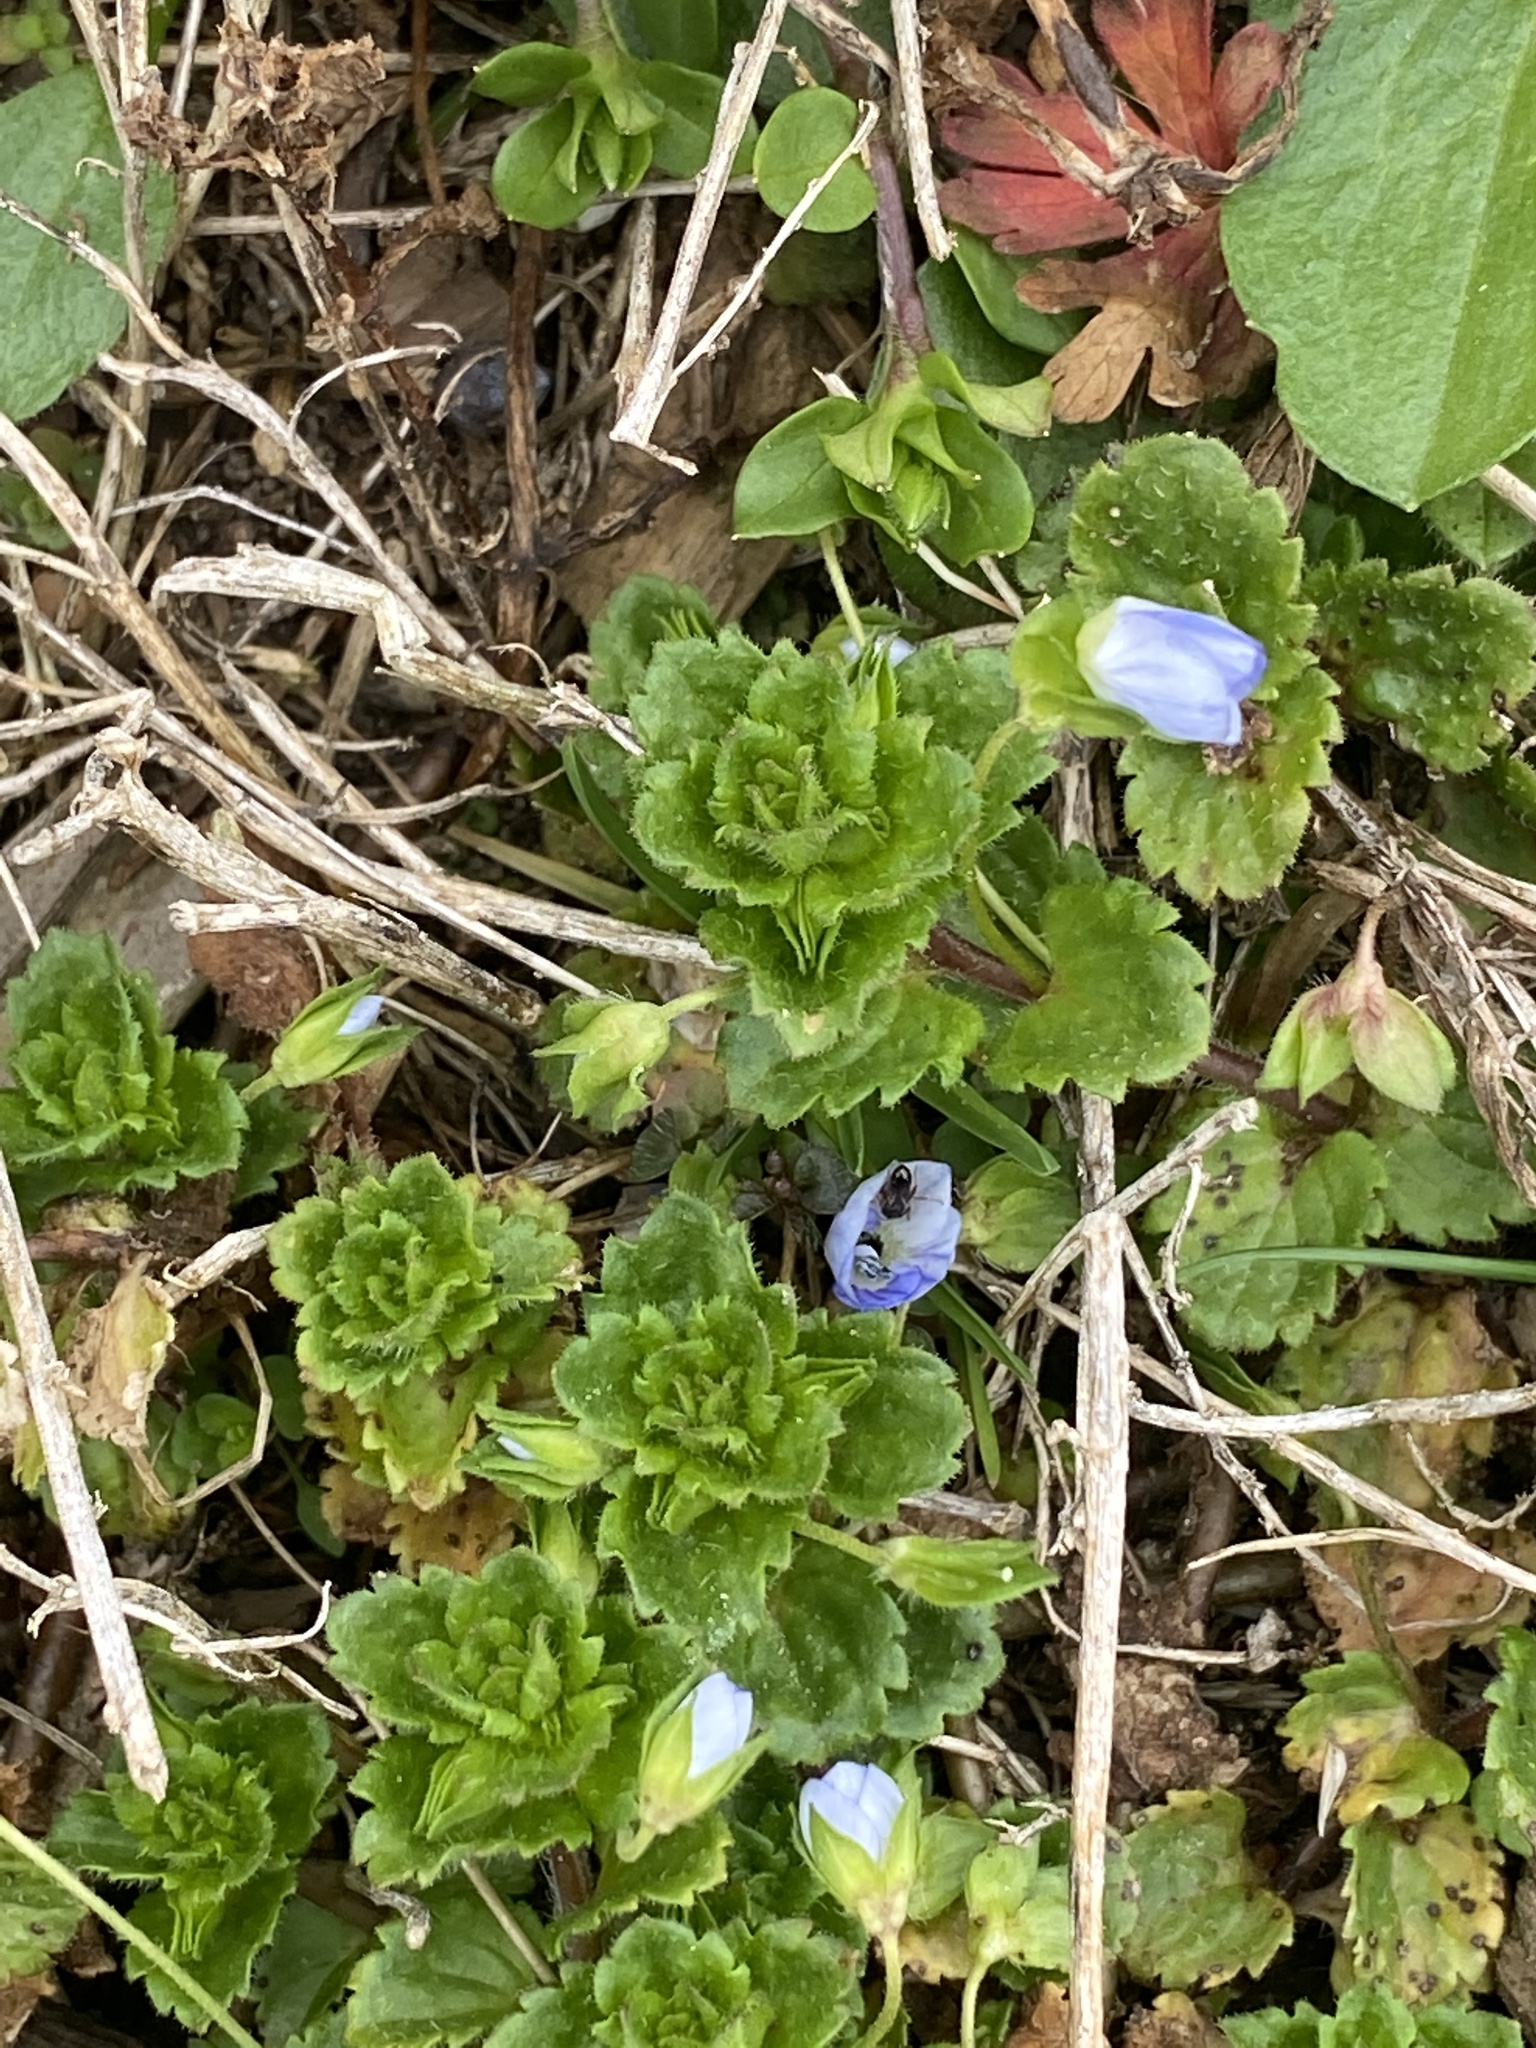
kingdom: Plantae
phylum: Tracheophyta
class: Magnoliopsida
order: Lamiales
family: Plantaginaceae
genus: Veronica
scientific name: Veronica persica
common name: Common field-speedwell
